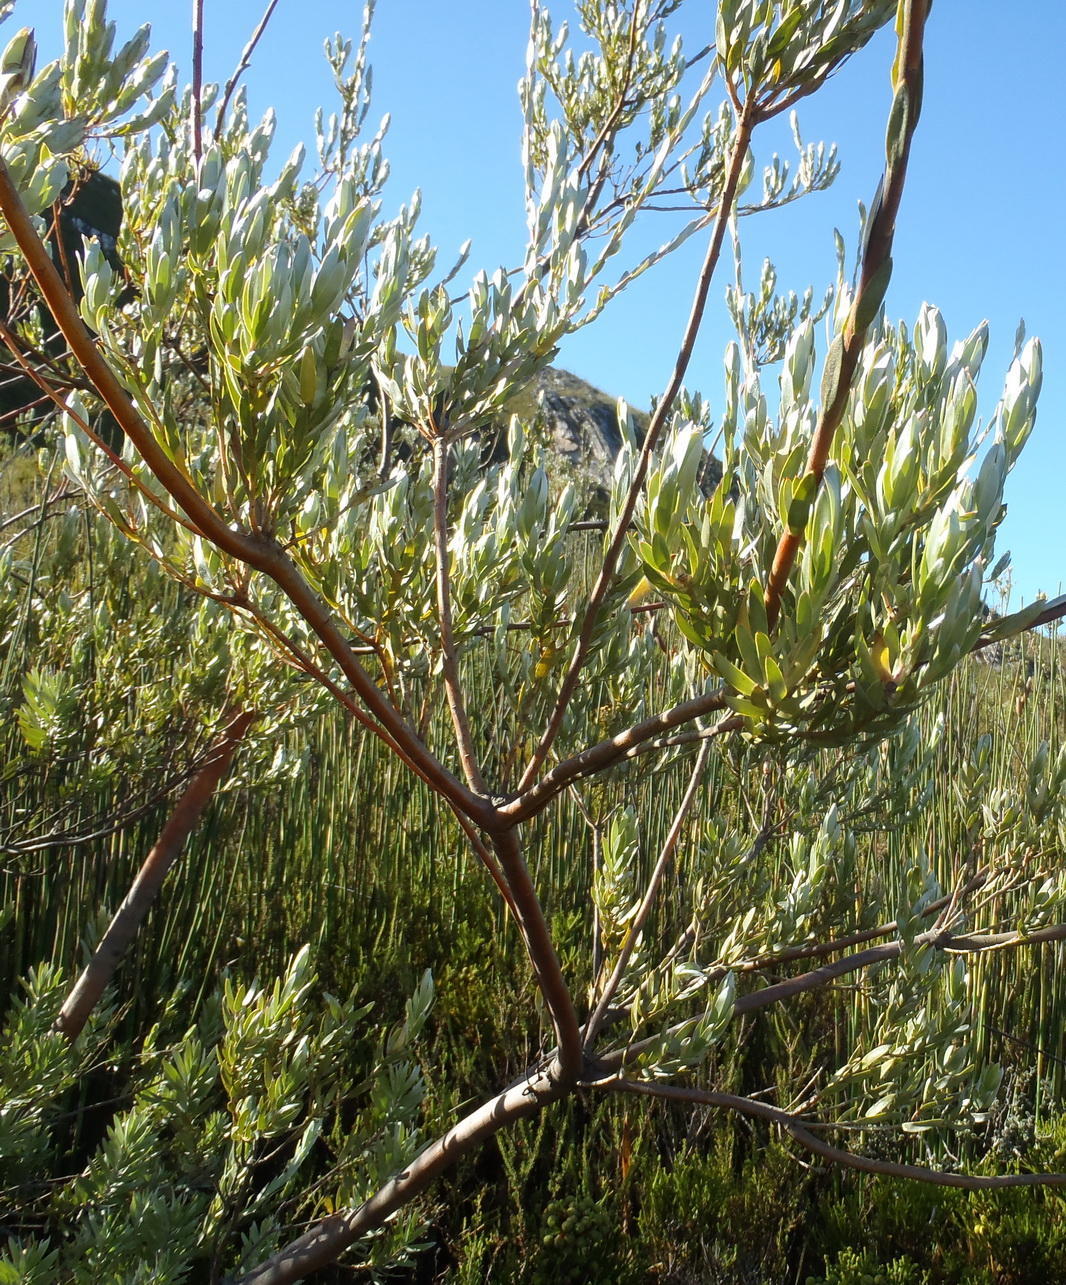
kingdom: Plantae
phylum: Tracheophyta
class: Magnoliopsida
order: Proteales
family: Proteaceae
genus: Leucadendron
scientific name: Leucadendron uliginosum
